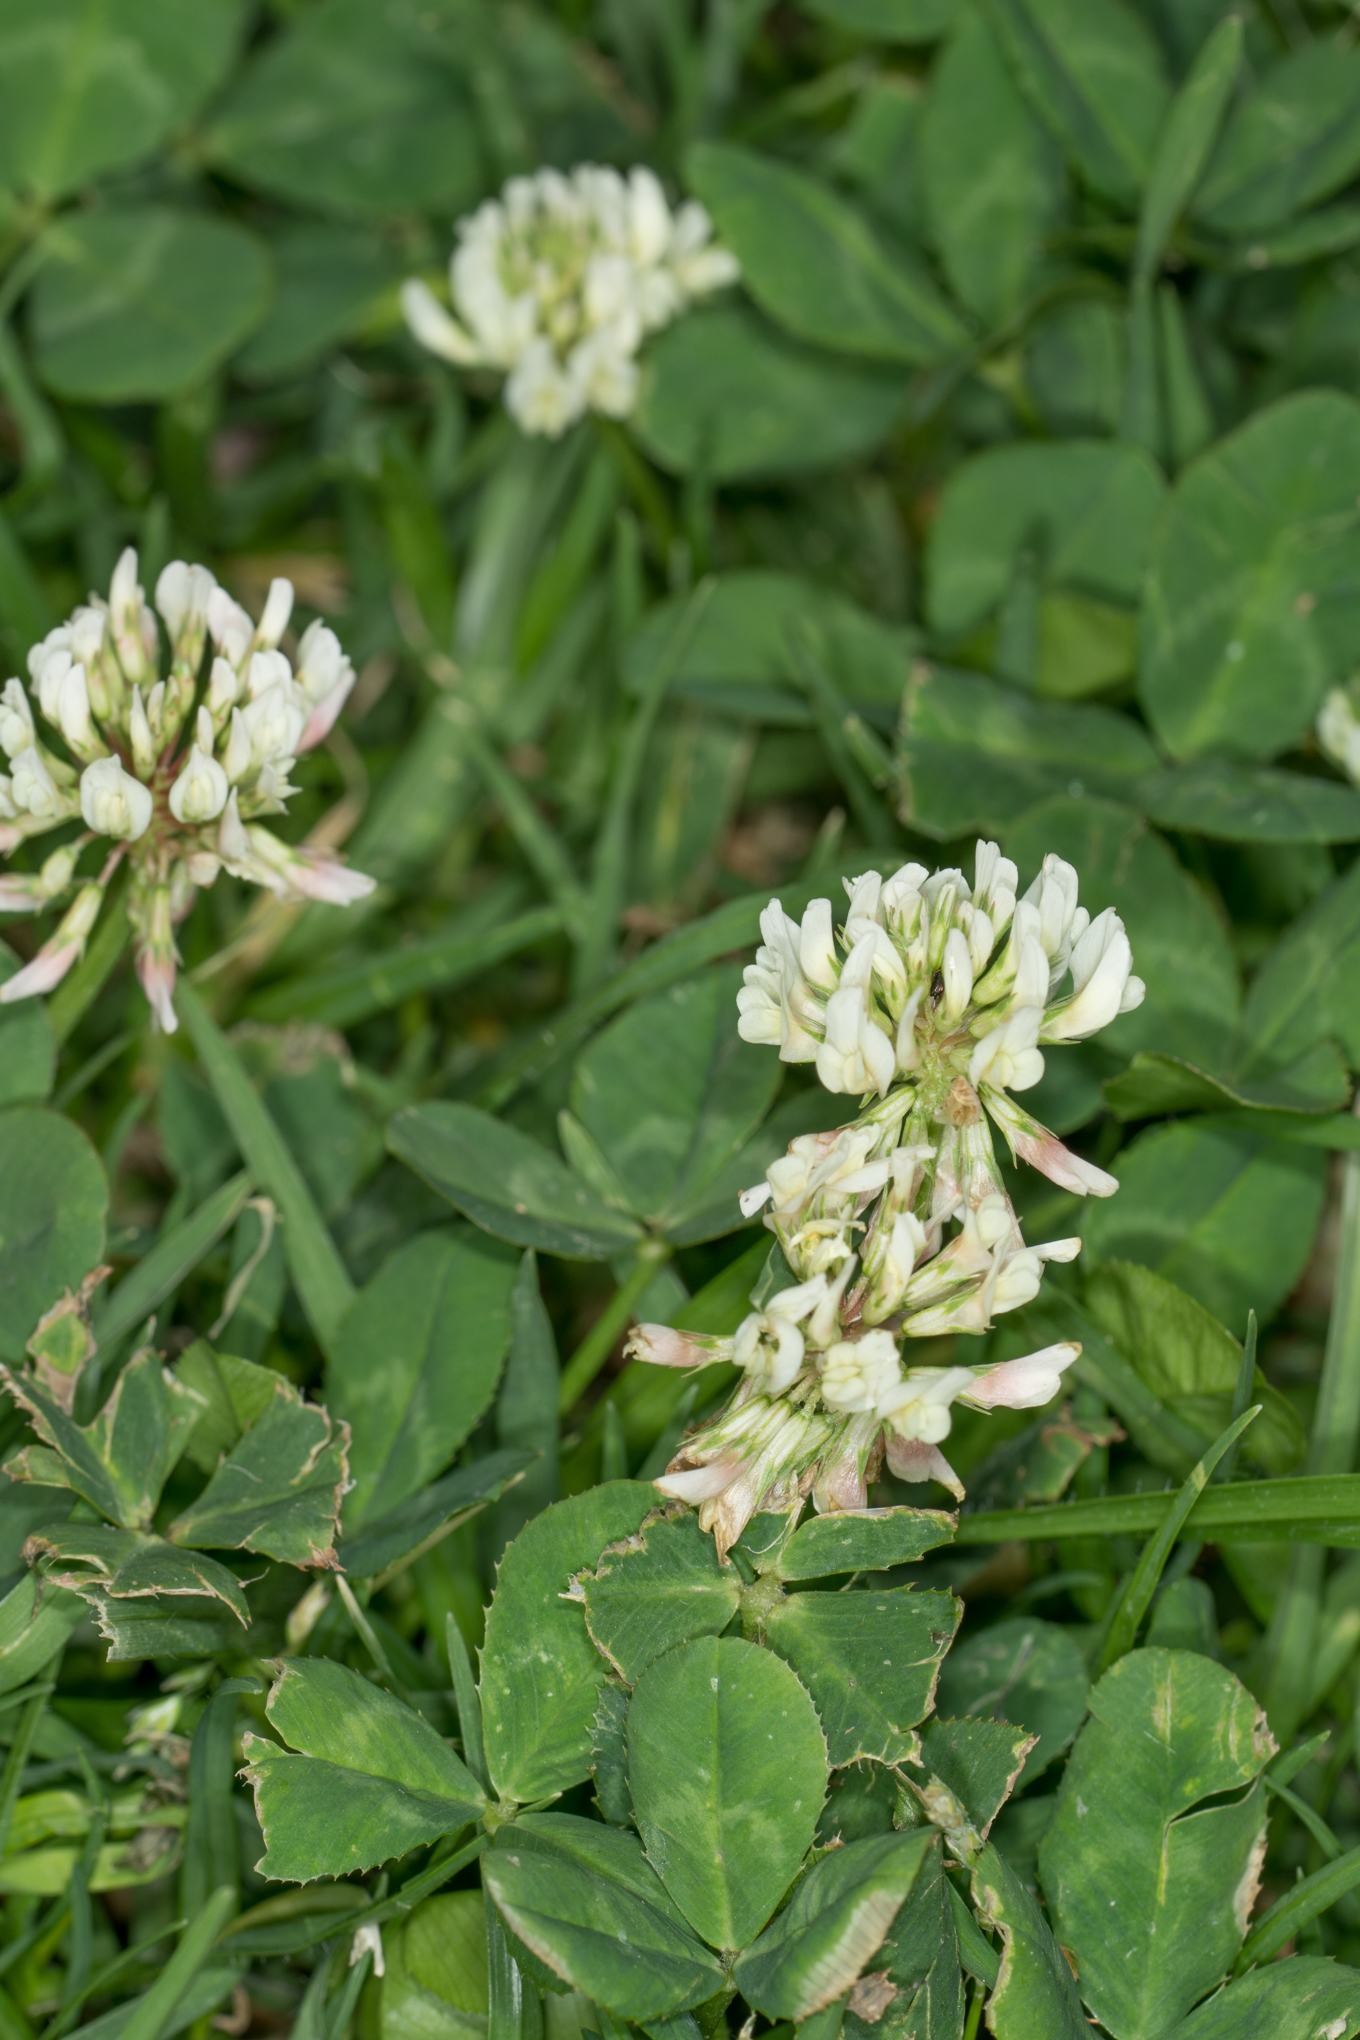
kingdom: Plantae
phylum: Tracheophyta
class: Magnoliopsida
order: Fabales
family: Fabaceae
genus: Trifolium
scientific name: Trifolium repens
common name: White clover
